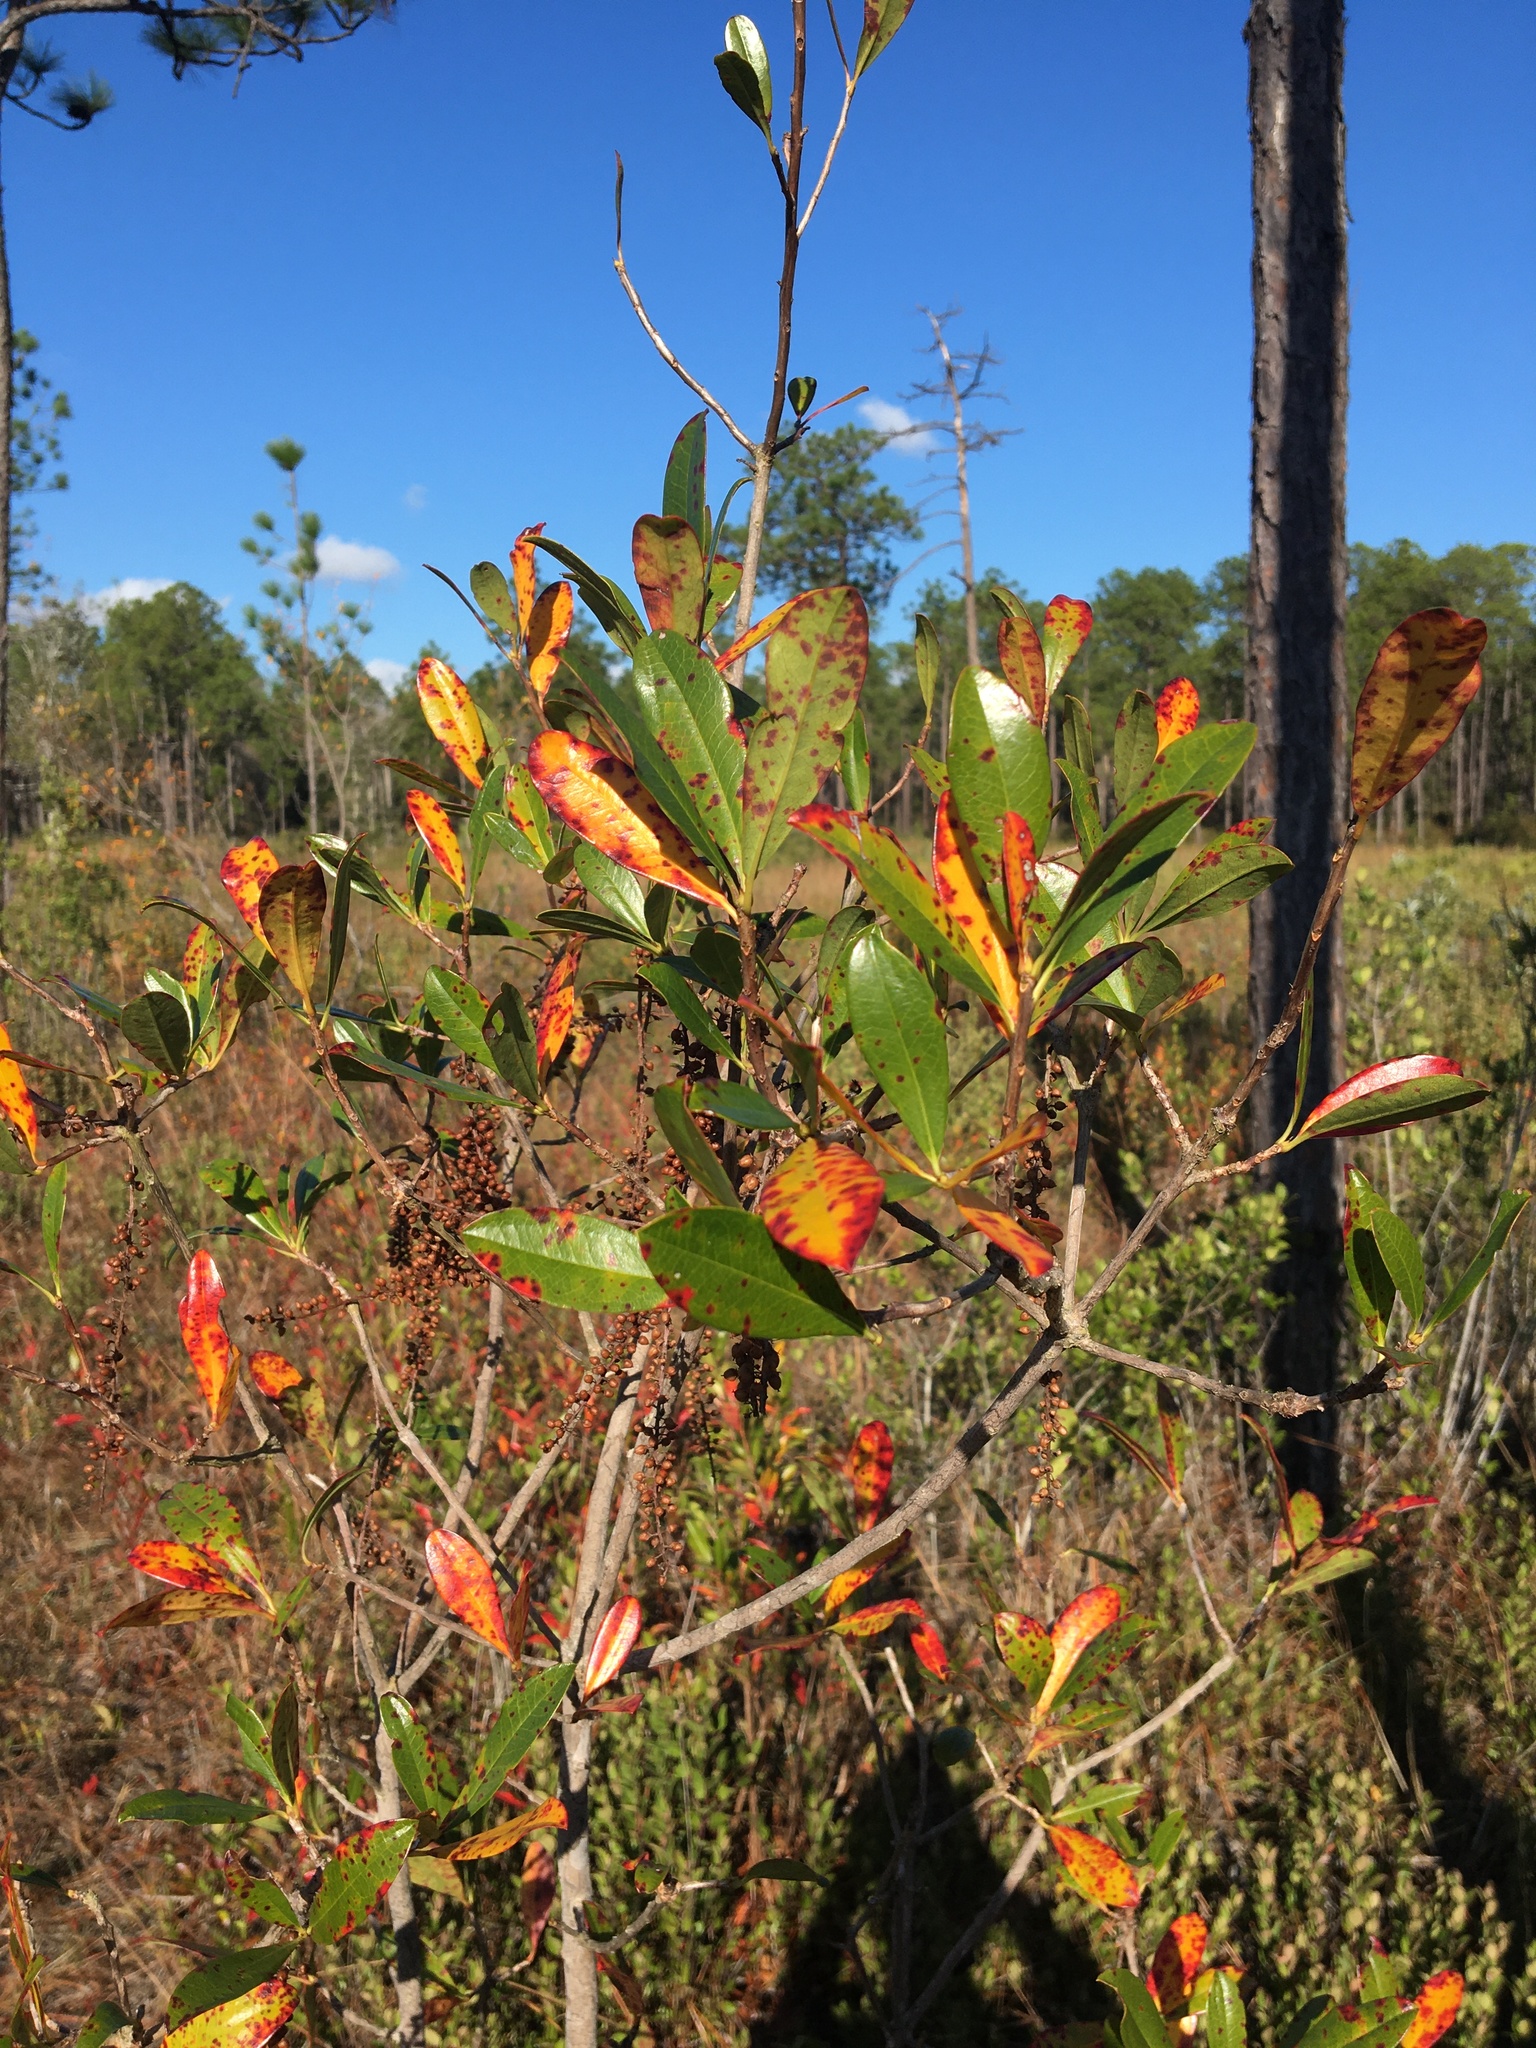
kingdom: Plantae
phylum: Tracheophyta
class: Magnoliopsida
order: Ericales
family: Cyrillaceae
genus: Cyrilla
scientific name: Cyrilla racemiflora
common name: Black titi
